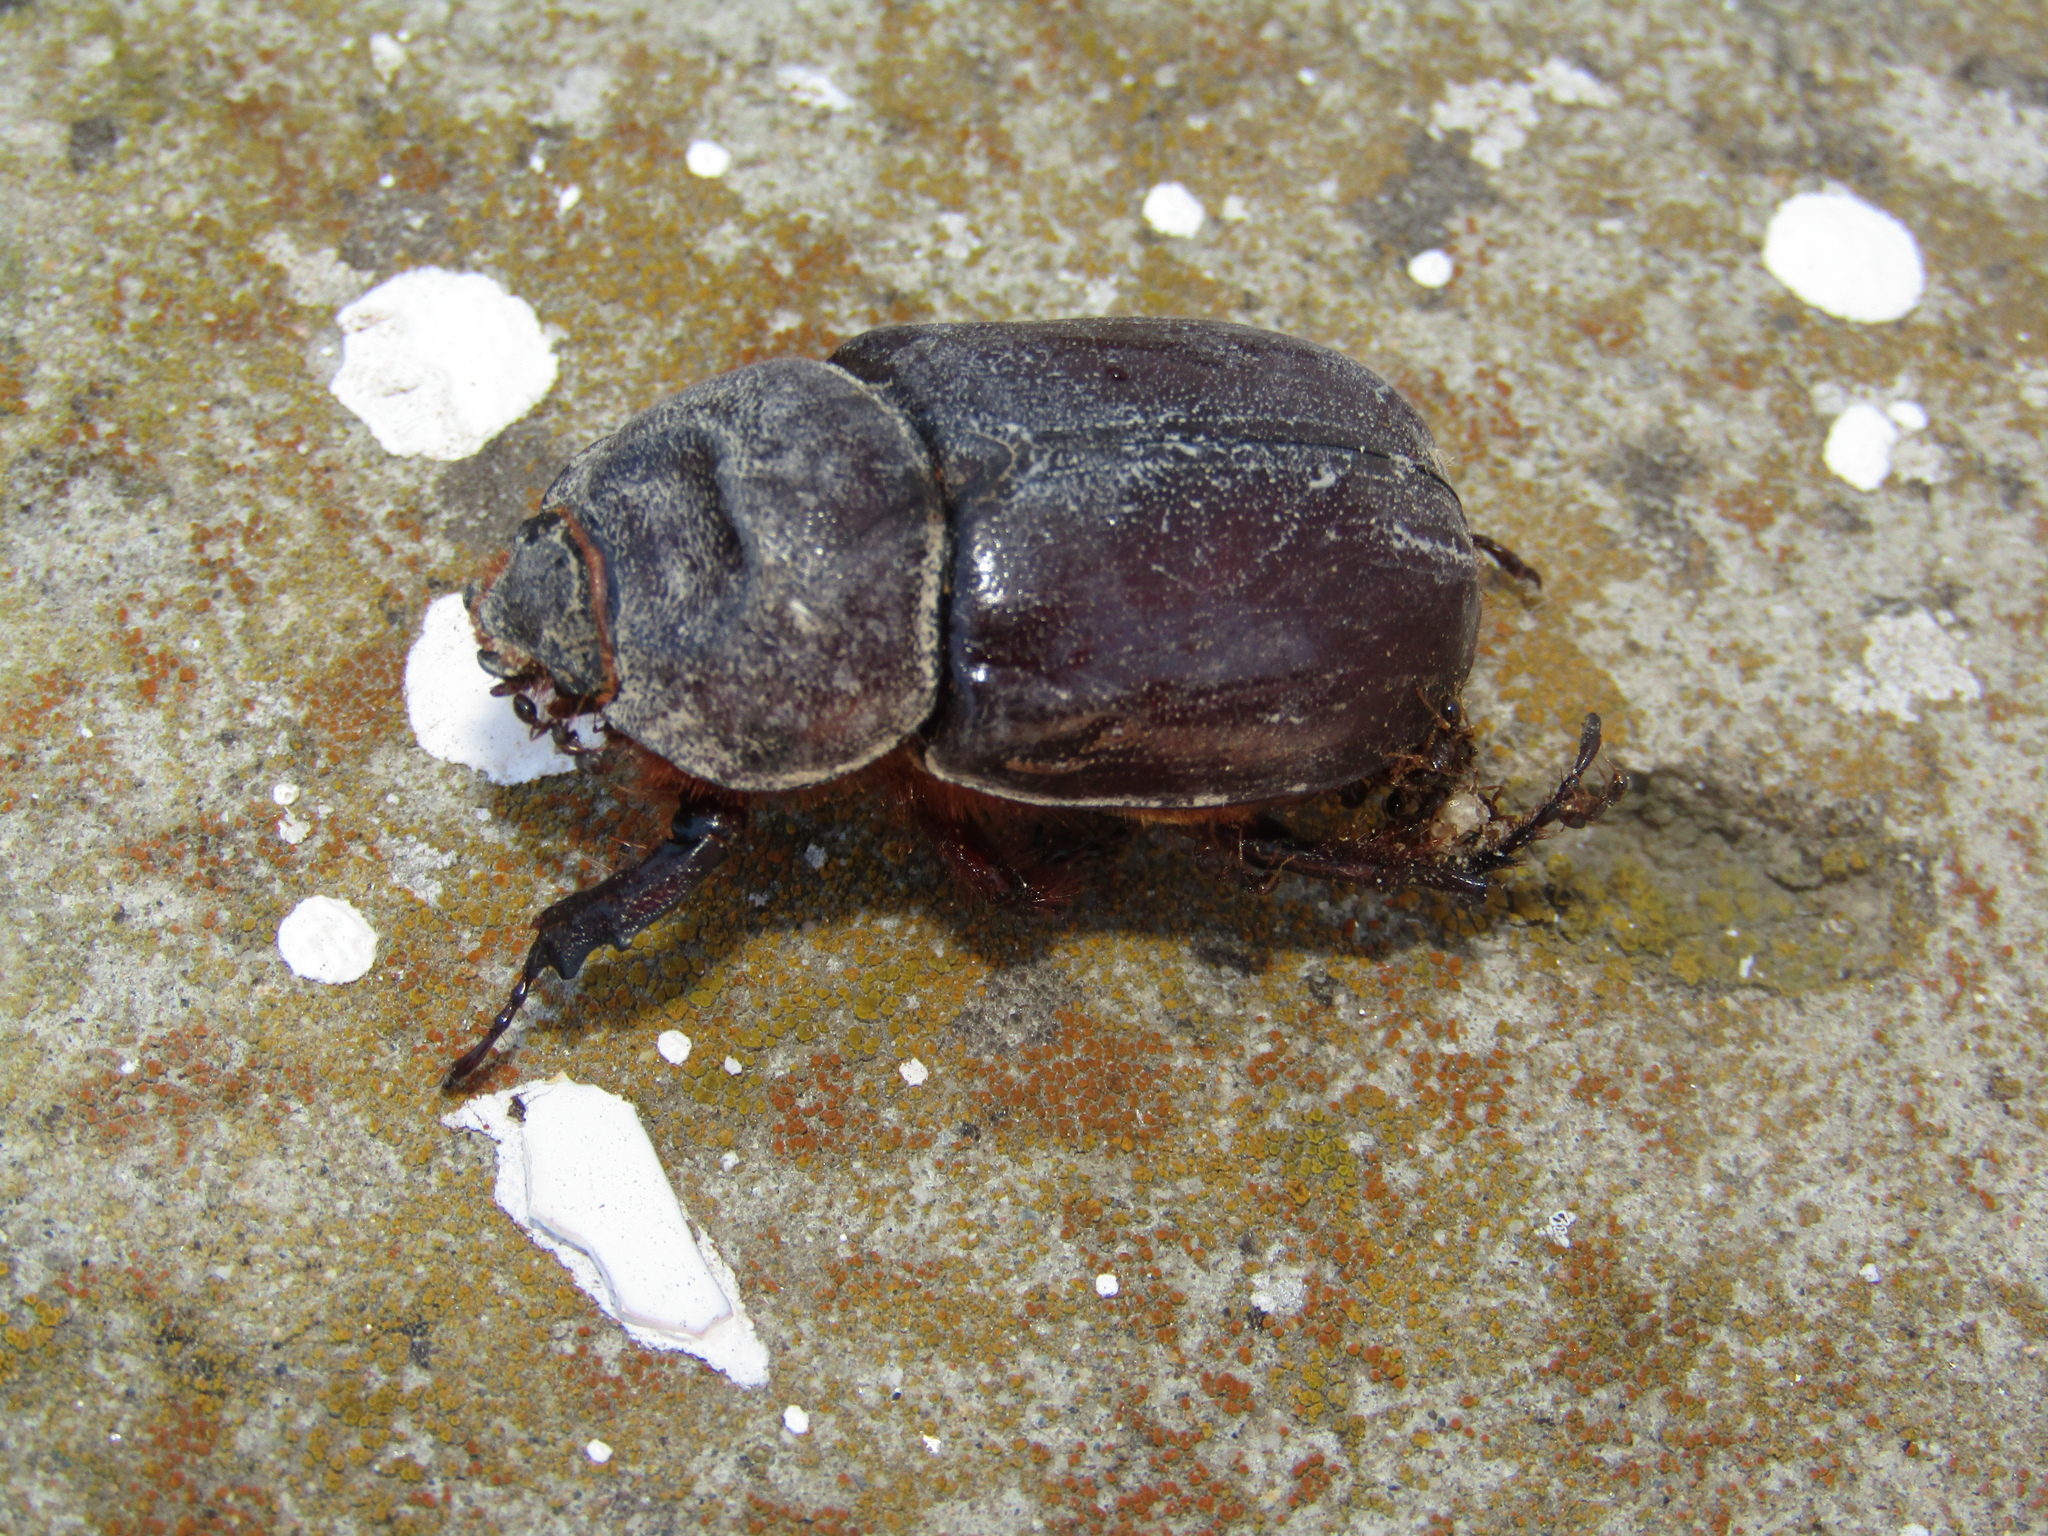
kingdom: Animalia
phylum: Arthropoda
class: Insecta
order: Coleoptera
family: Scarabaeidae
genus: Oryctes
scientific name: Oryctes nasicornis
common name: European rhinoceros beetle
